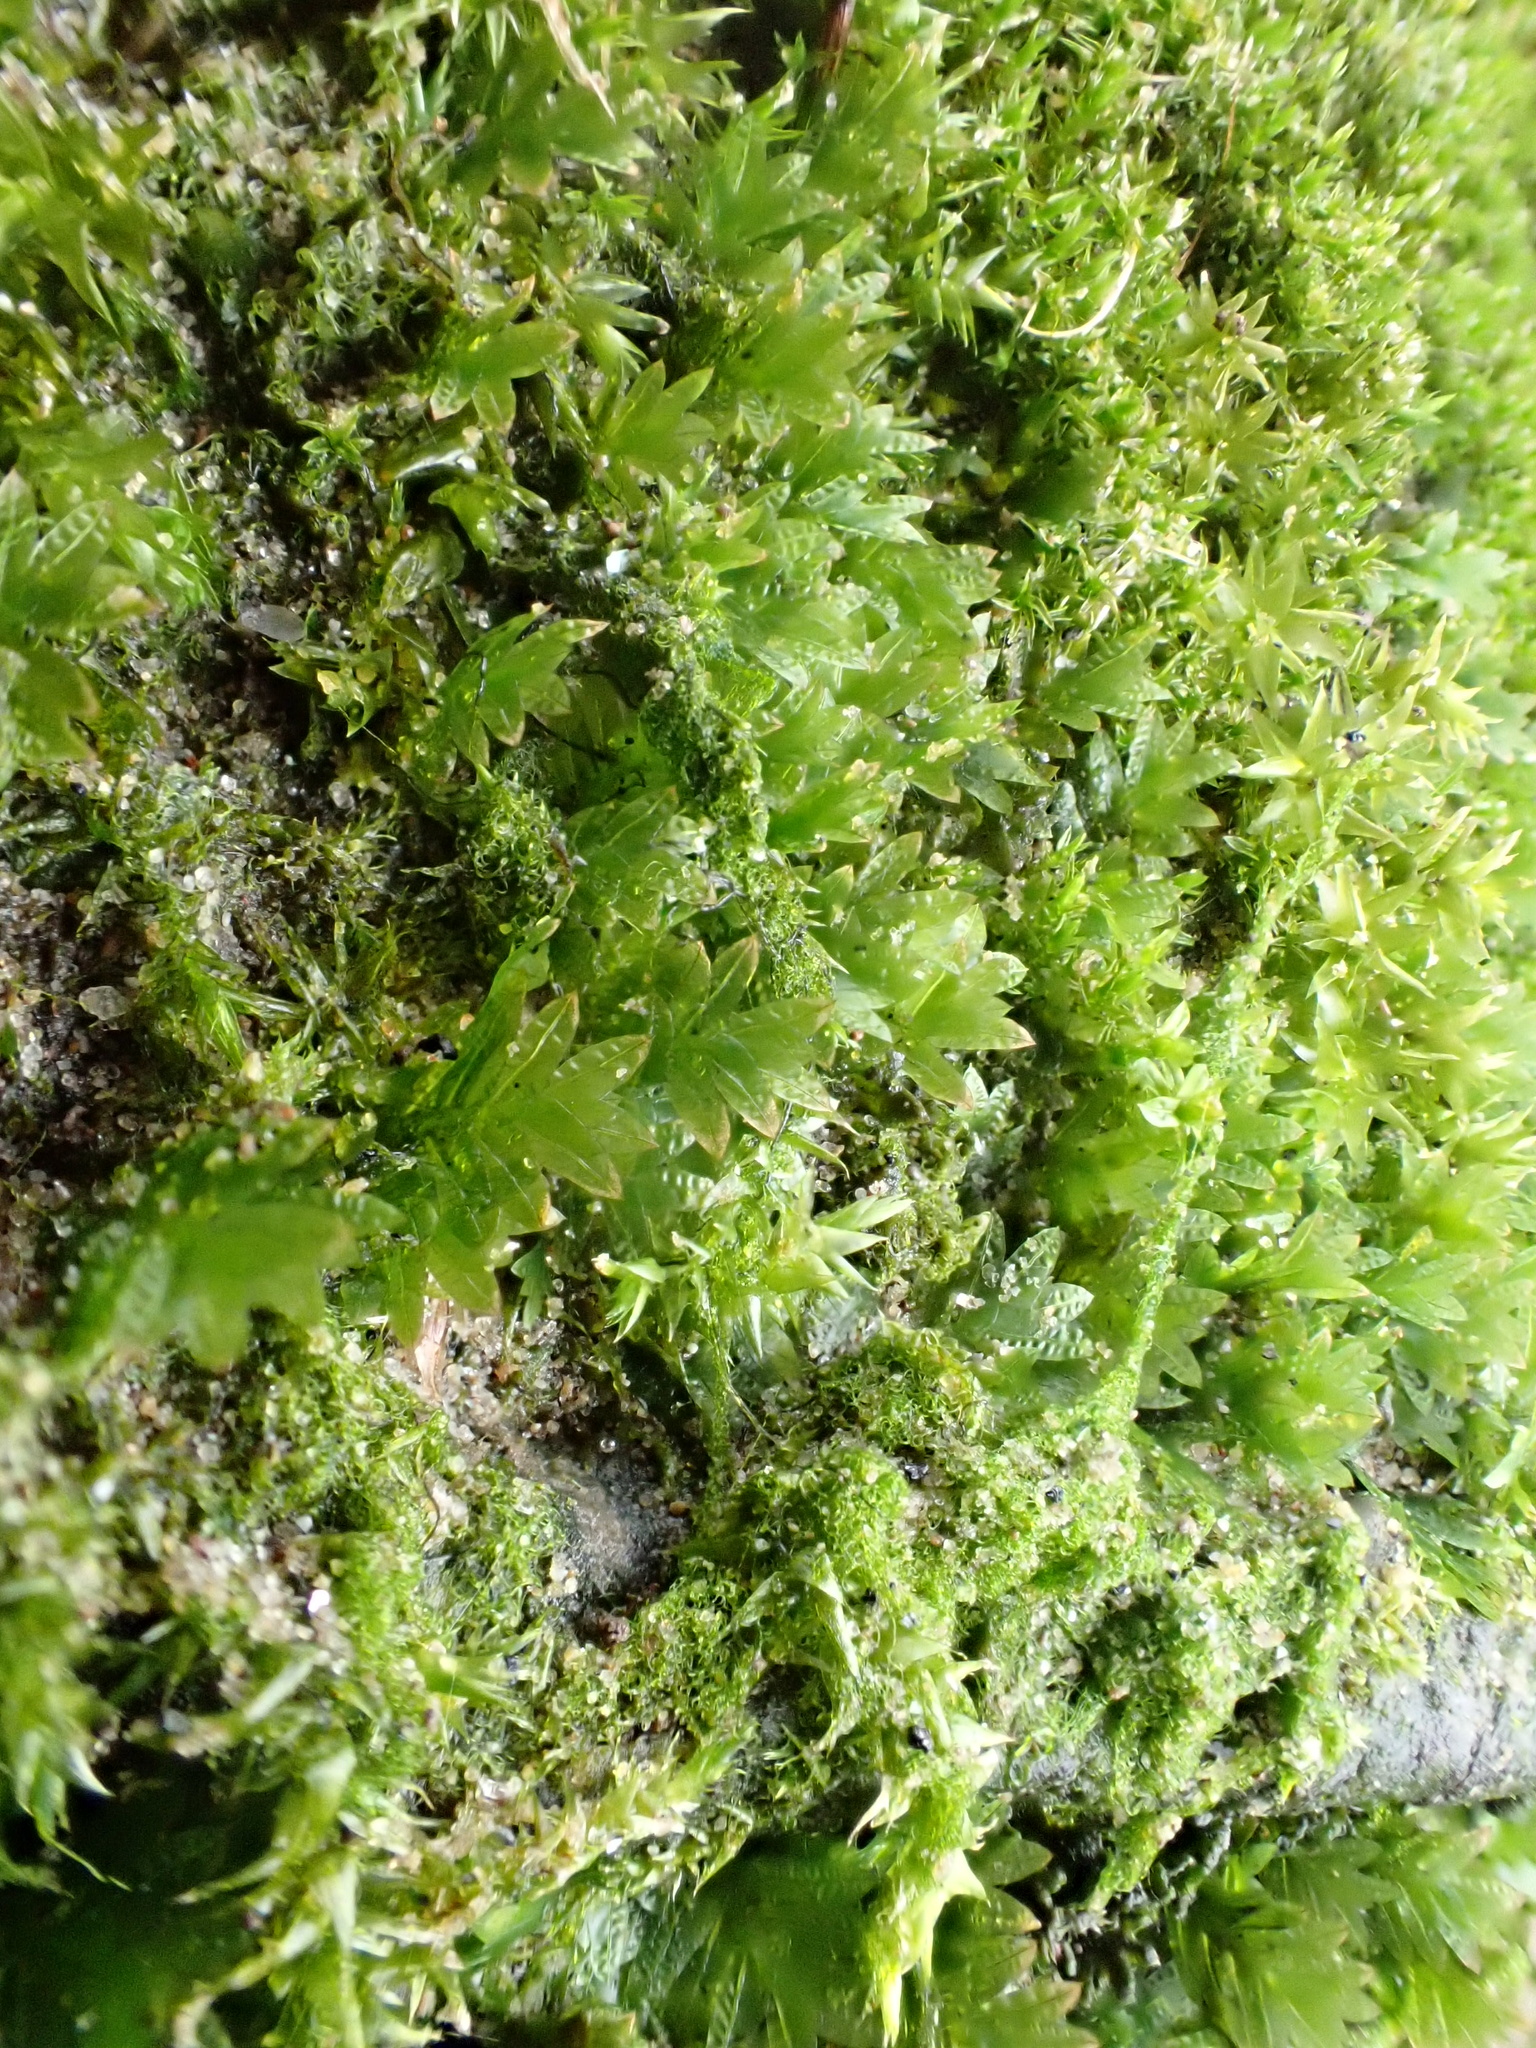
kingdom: Plantae
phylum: Bryophyta
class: Bryopsida
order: Dicranales
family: Fissidentaceae
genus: Fissidens
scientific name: Fissidens taxifolius
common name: Yew-leaved pocket moss
